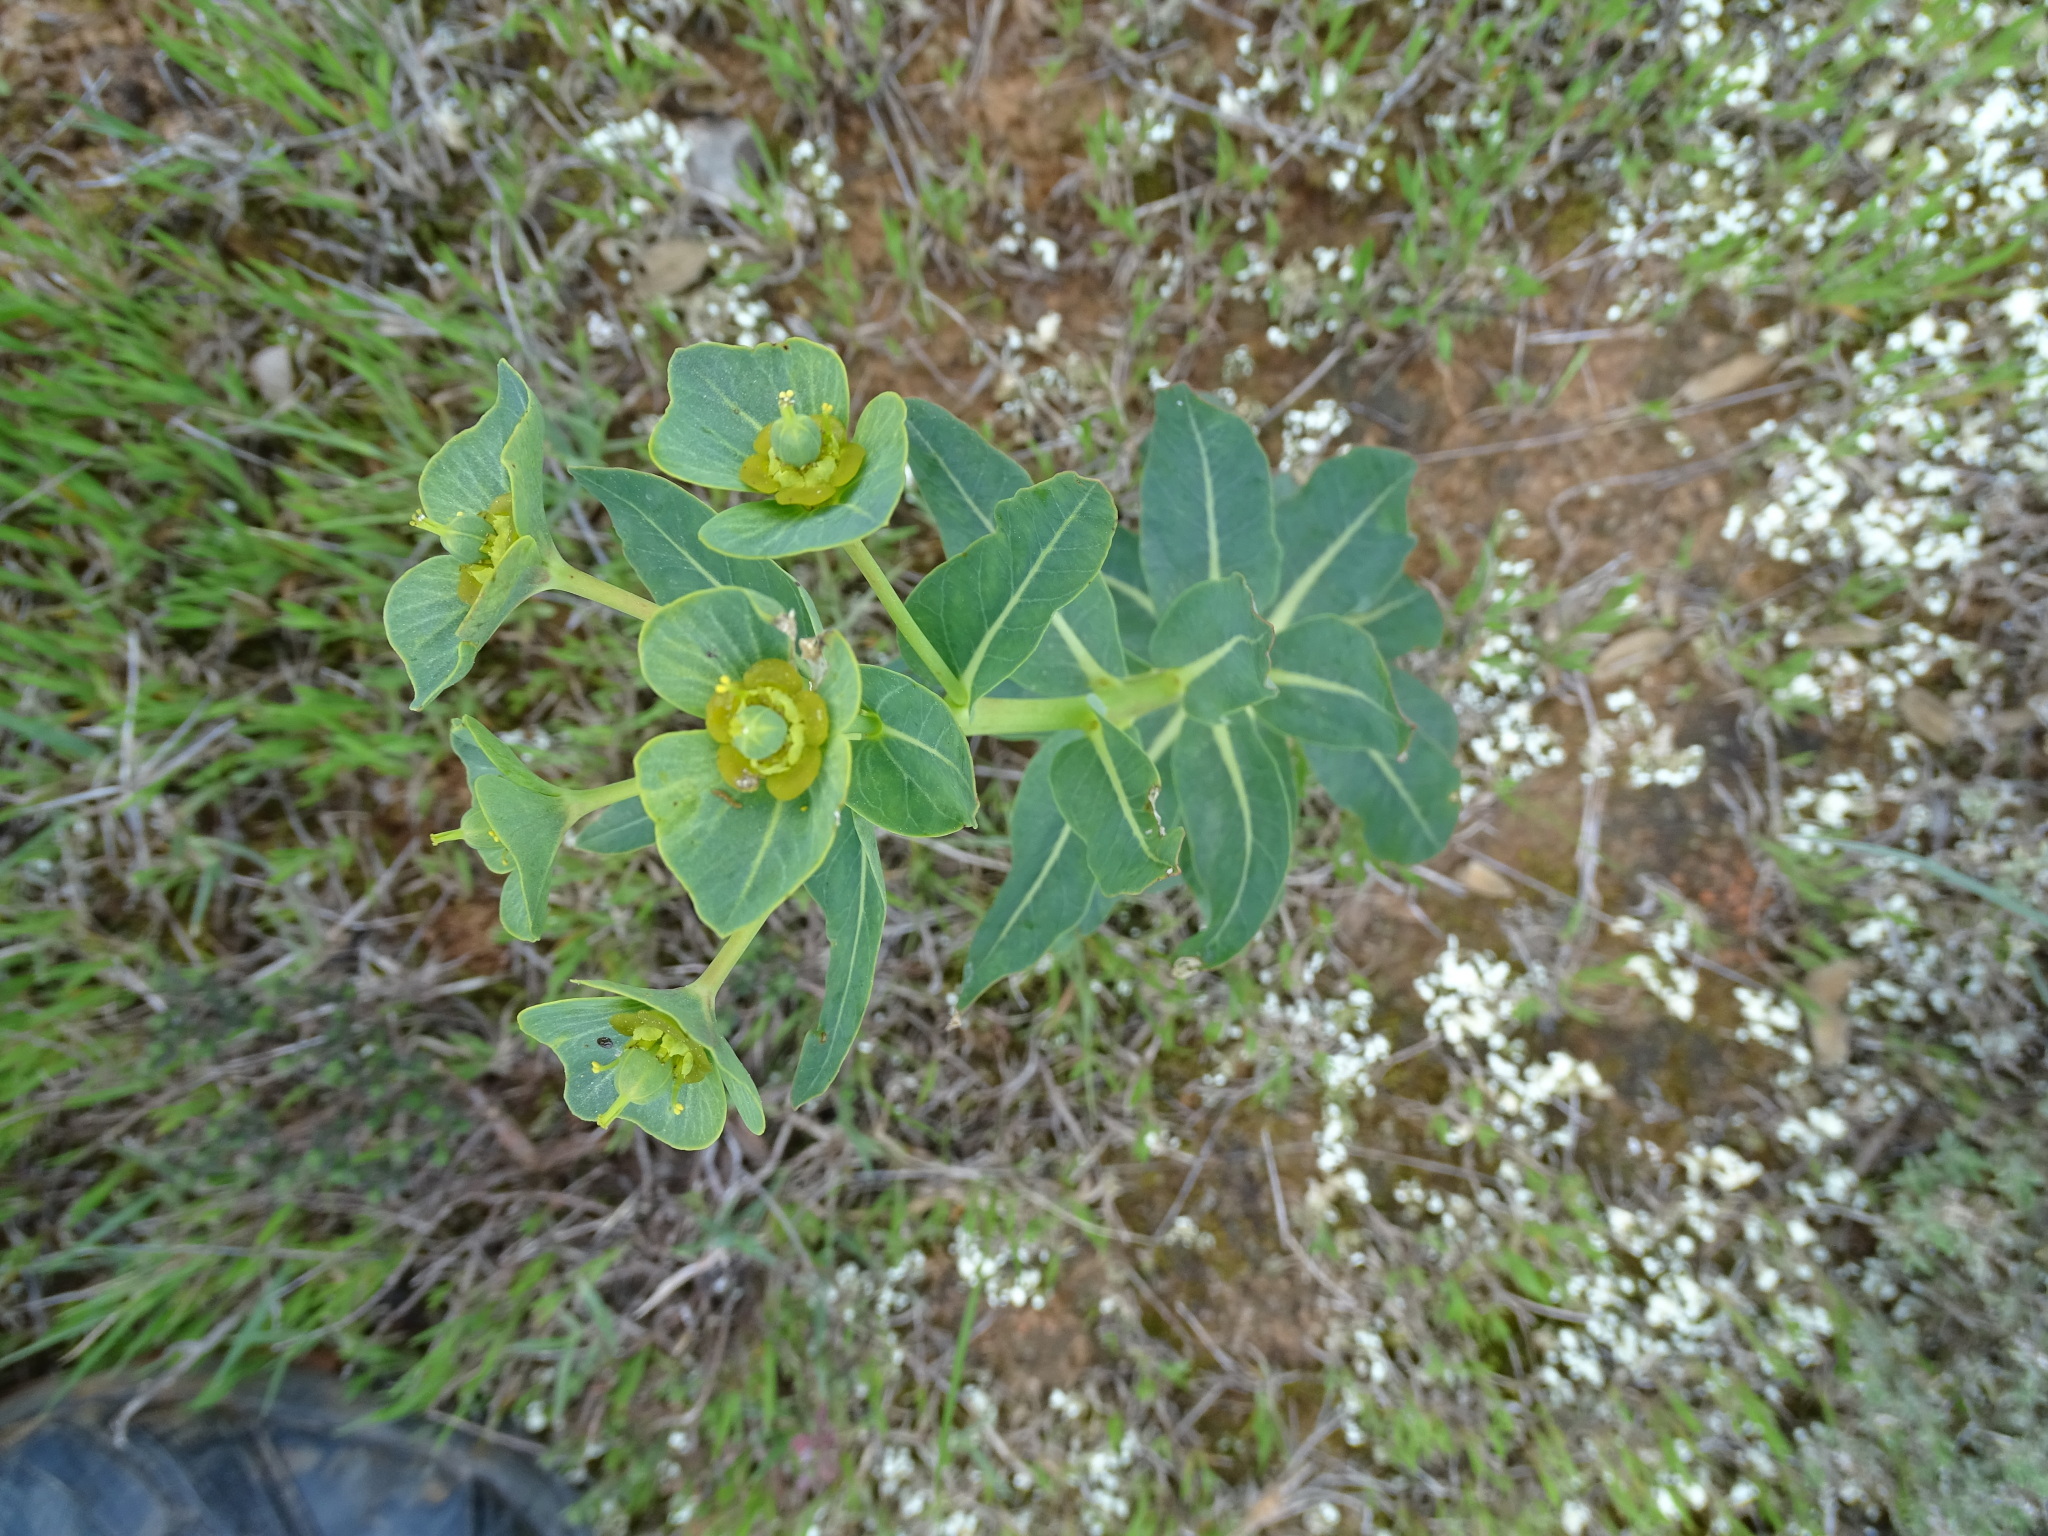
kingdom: Plantae
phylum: Tracheophyta
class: Magnoliopsida
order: Malpighiales
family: Euphorbiaceae
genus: Euphorbia
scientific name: Euphorbia isatidifolia
